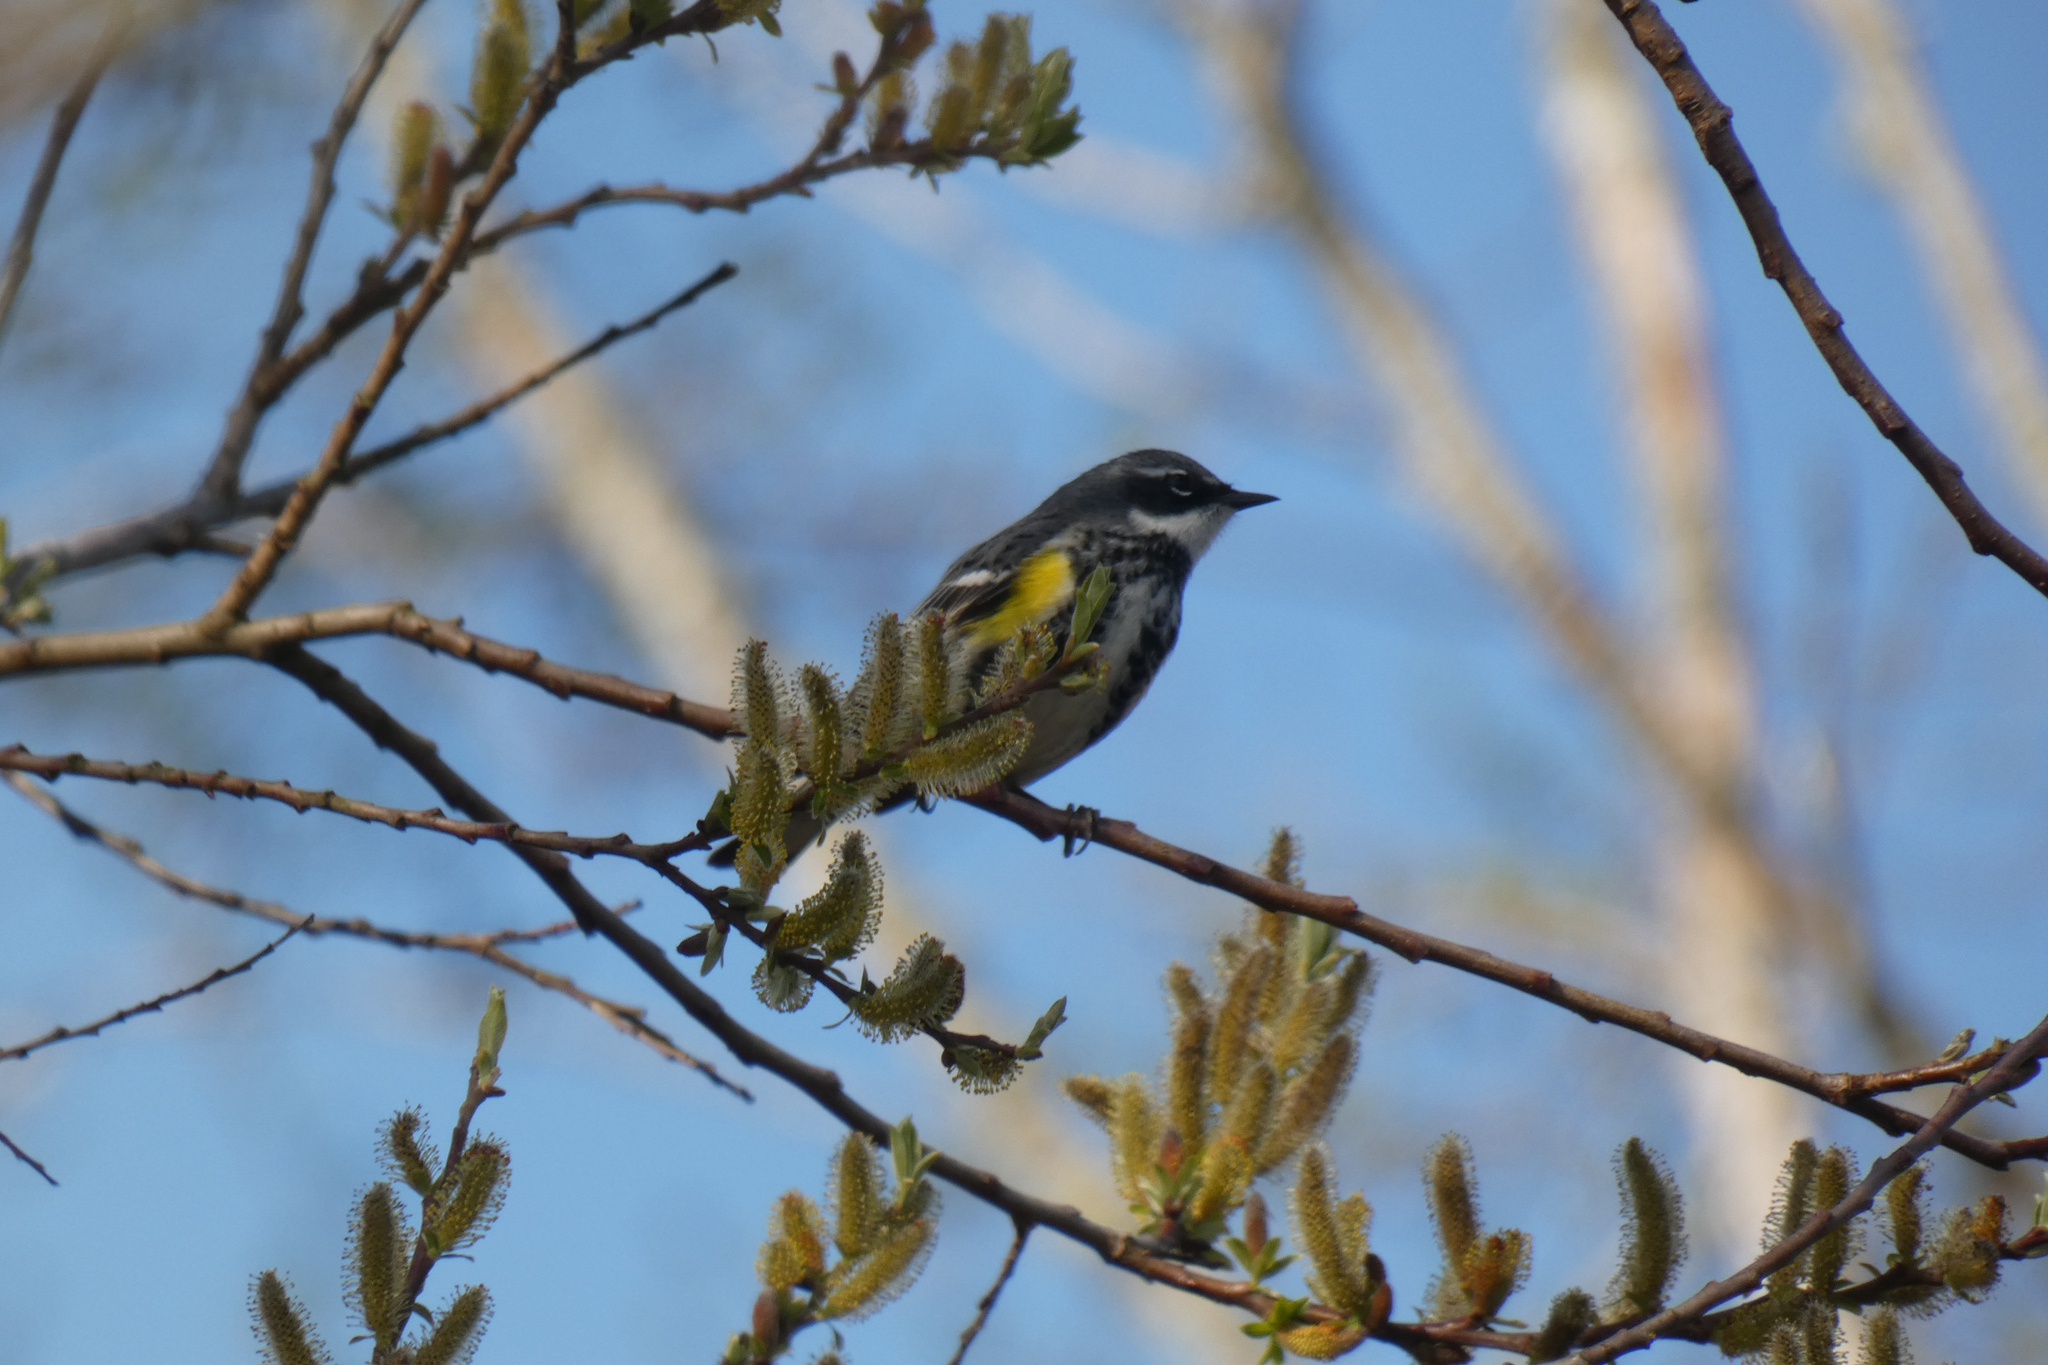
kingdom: Animalia
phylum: Chordata
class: Aves
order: Passeriformes
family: Parulidae
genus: Setophaga
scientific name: Setophaga coronata
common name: Myrtle warbler
